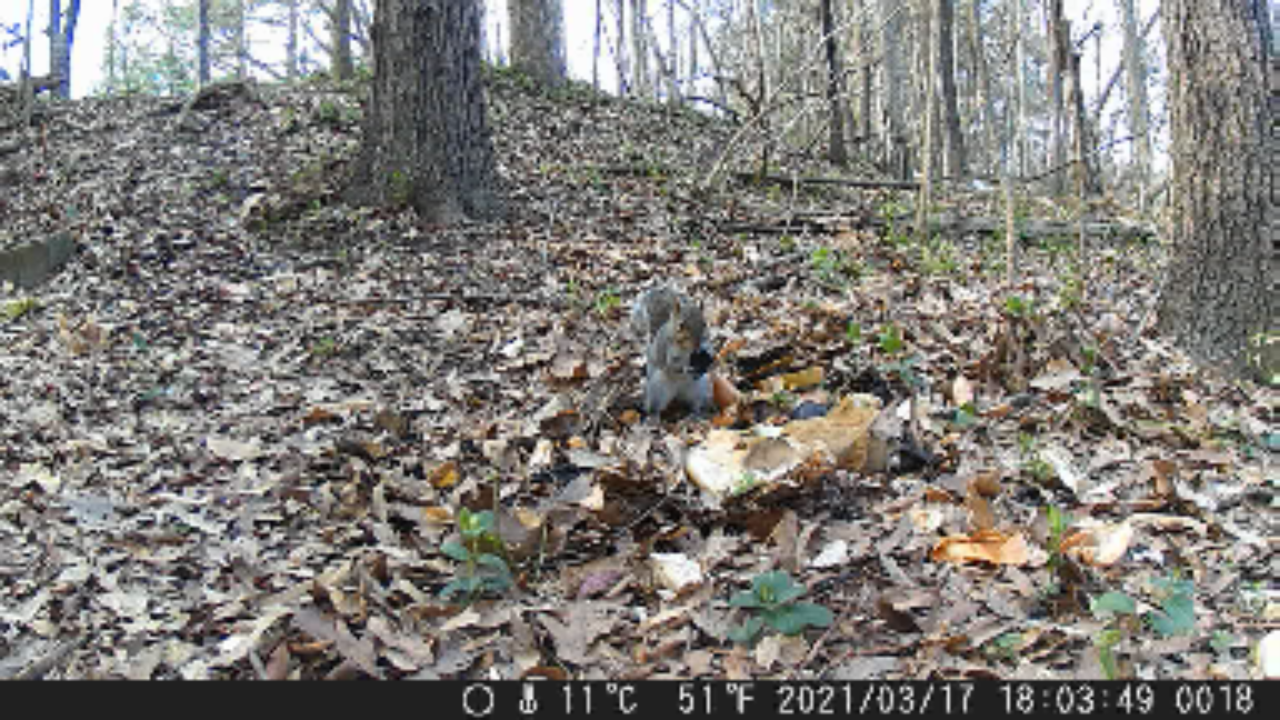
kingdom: Animalia
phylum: Chordata
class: Mammalia
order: Rodentia
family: Sciuridae
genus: Sciurus
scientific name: Sciurus carolinensis
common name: Eastern gray squirrel
